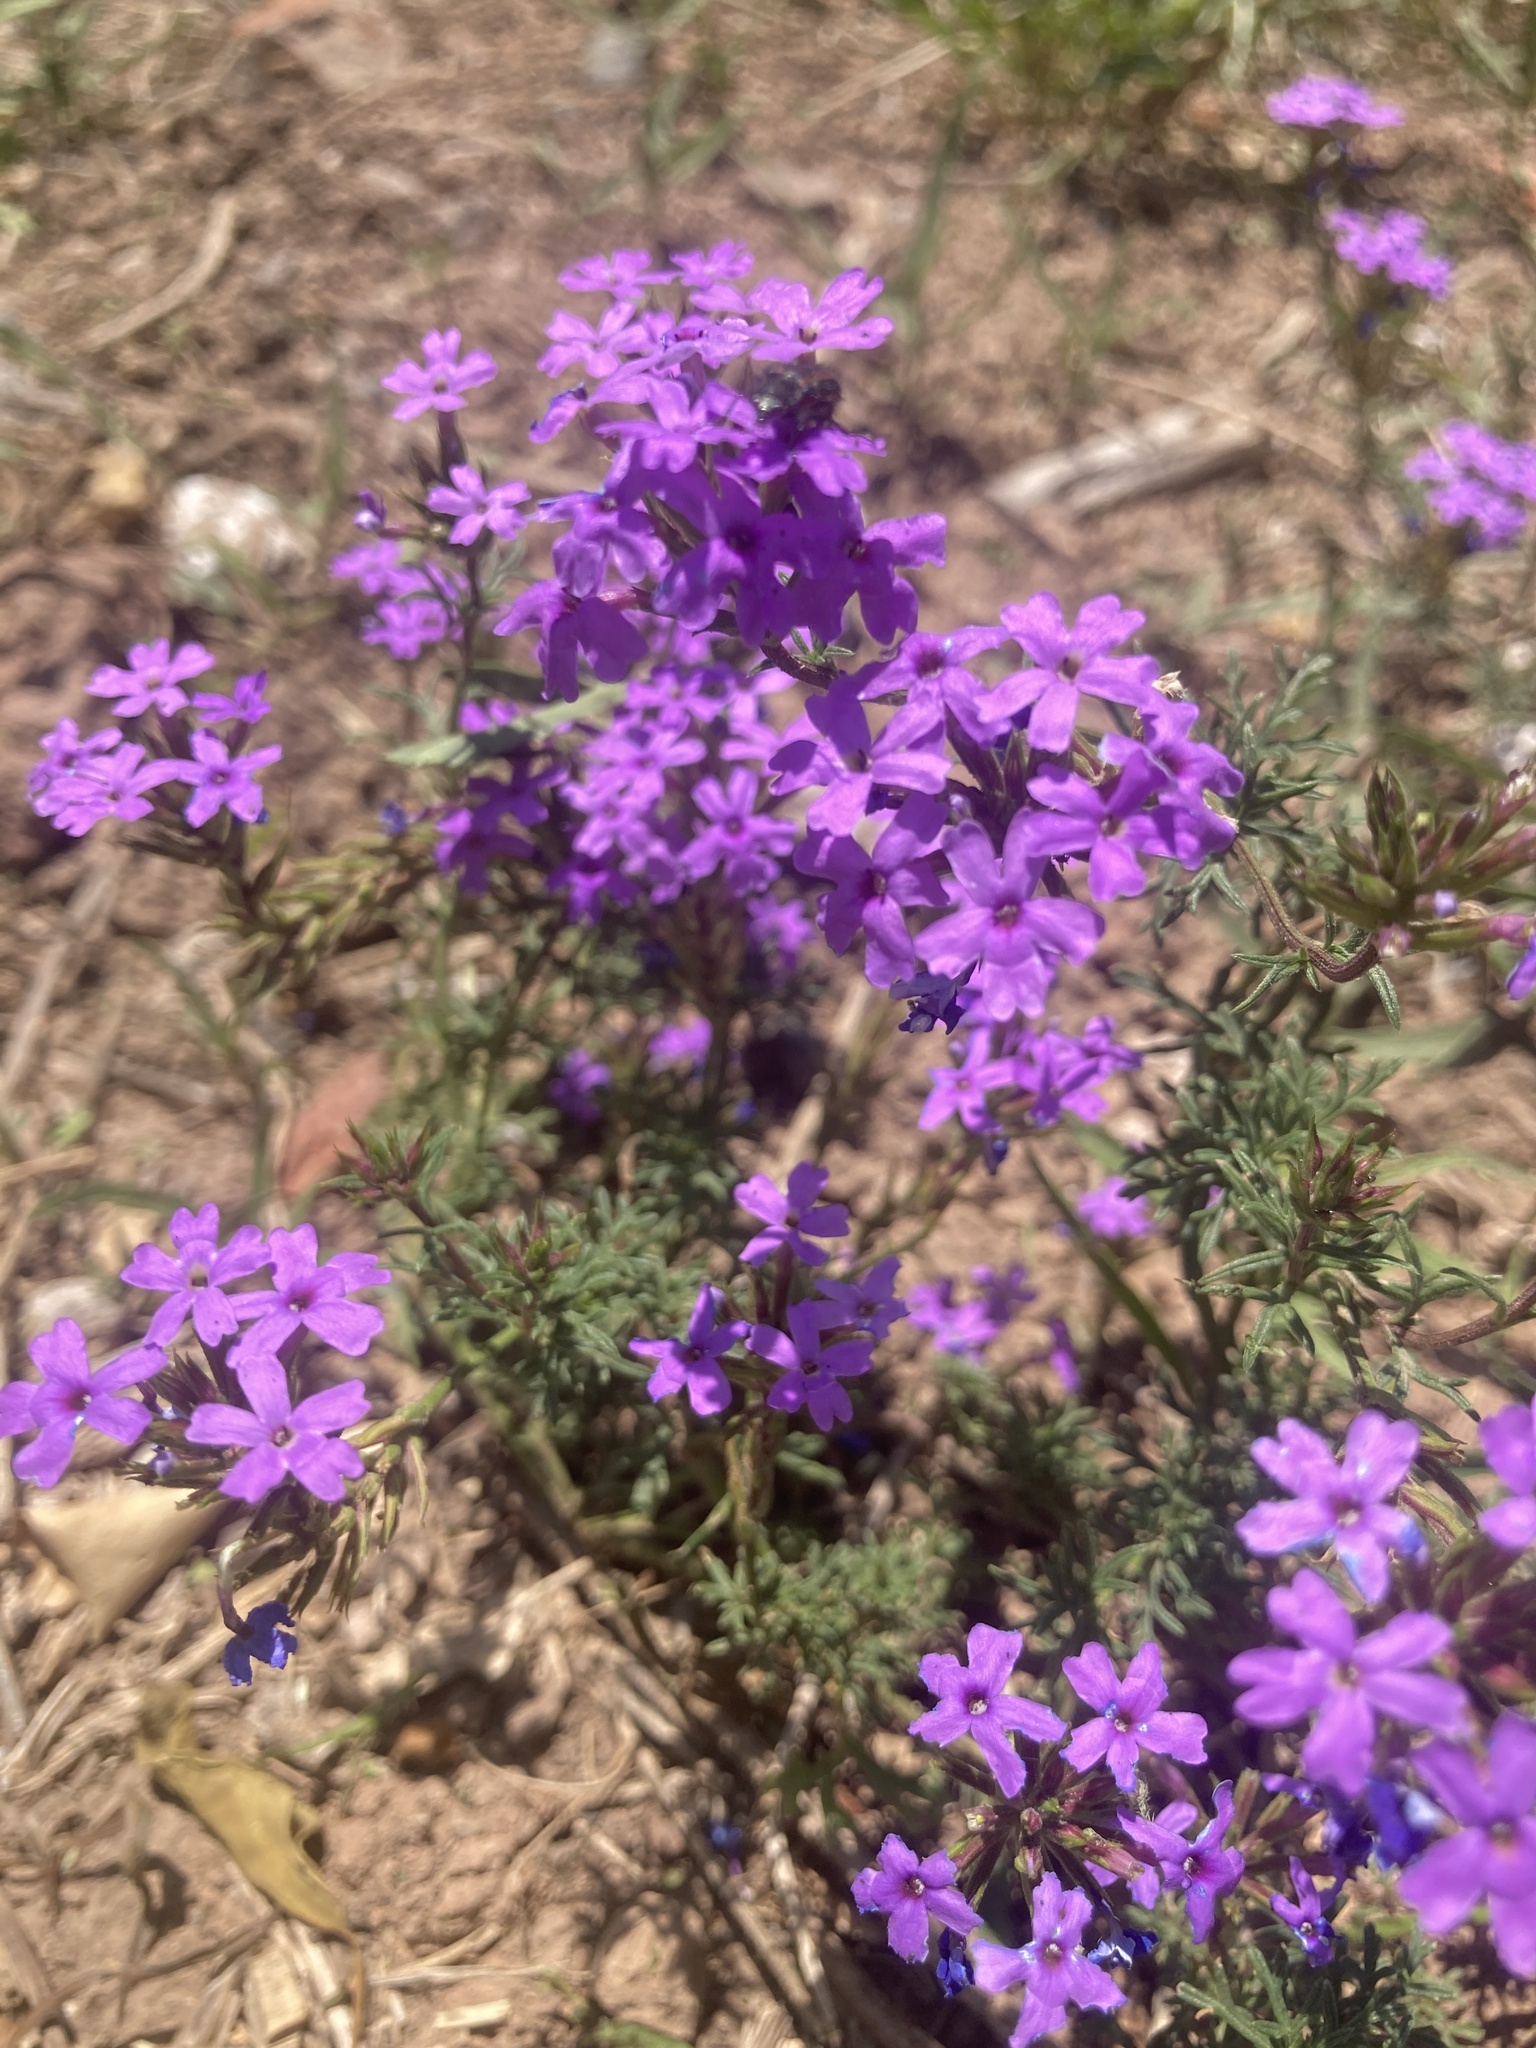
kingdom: Plantae
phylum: Tracheophyta
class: Magnoliopsida
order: Lamiales
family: Verbenaceae
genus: Verbena
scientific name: Verbena tenera
